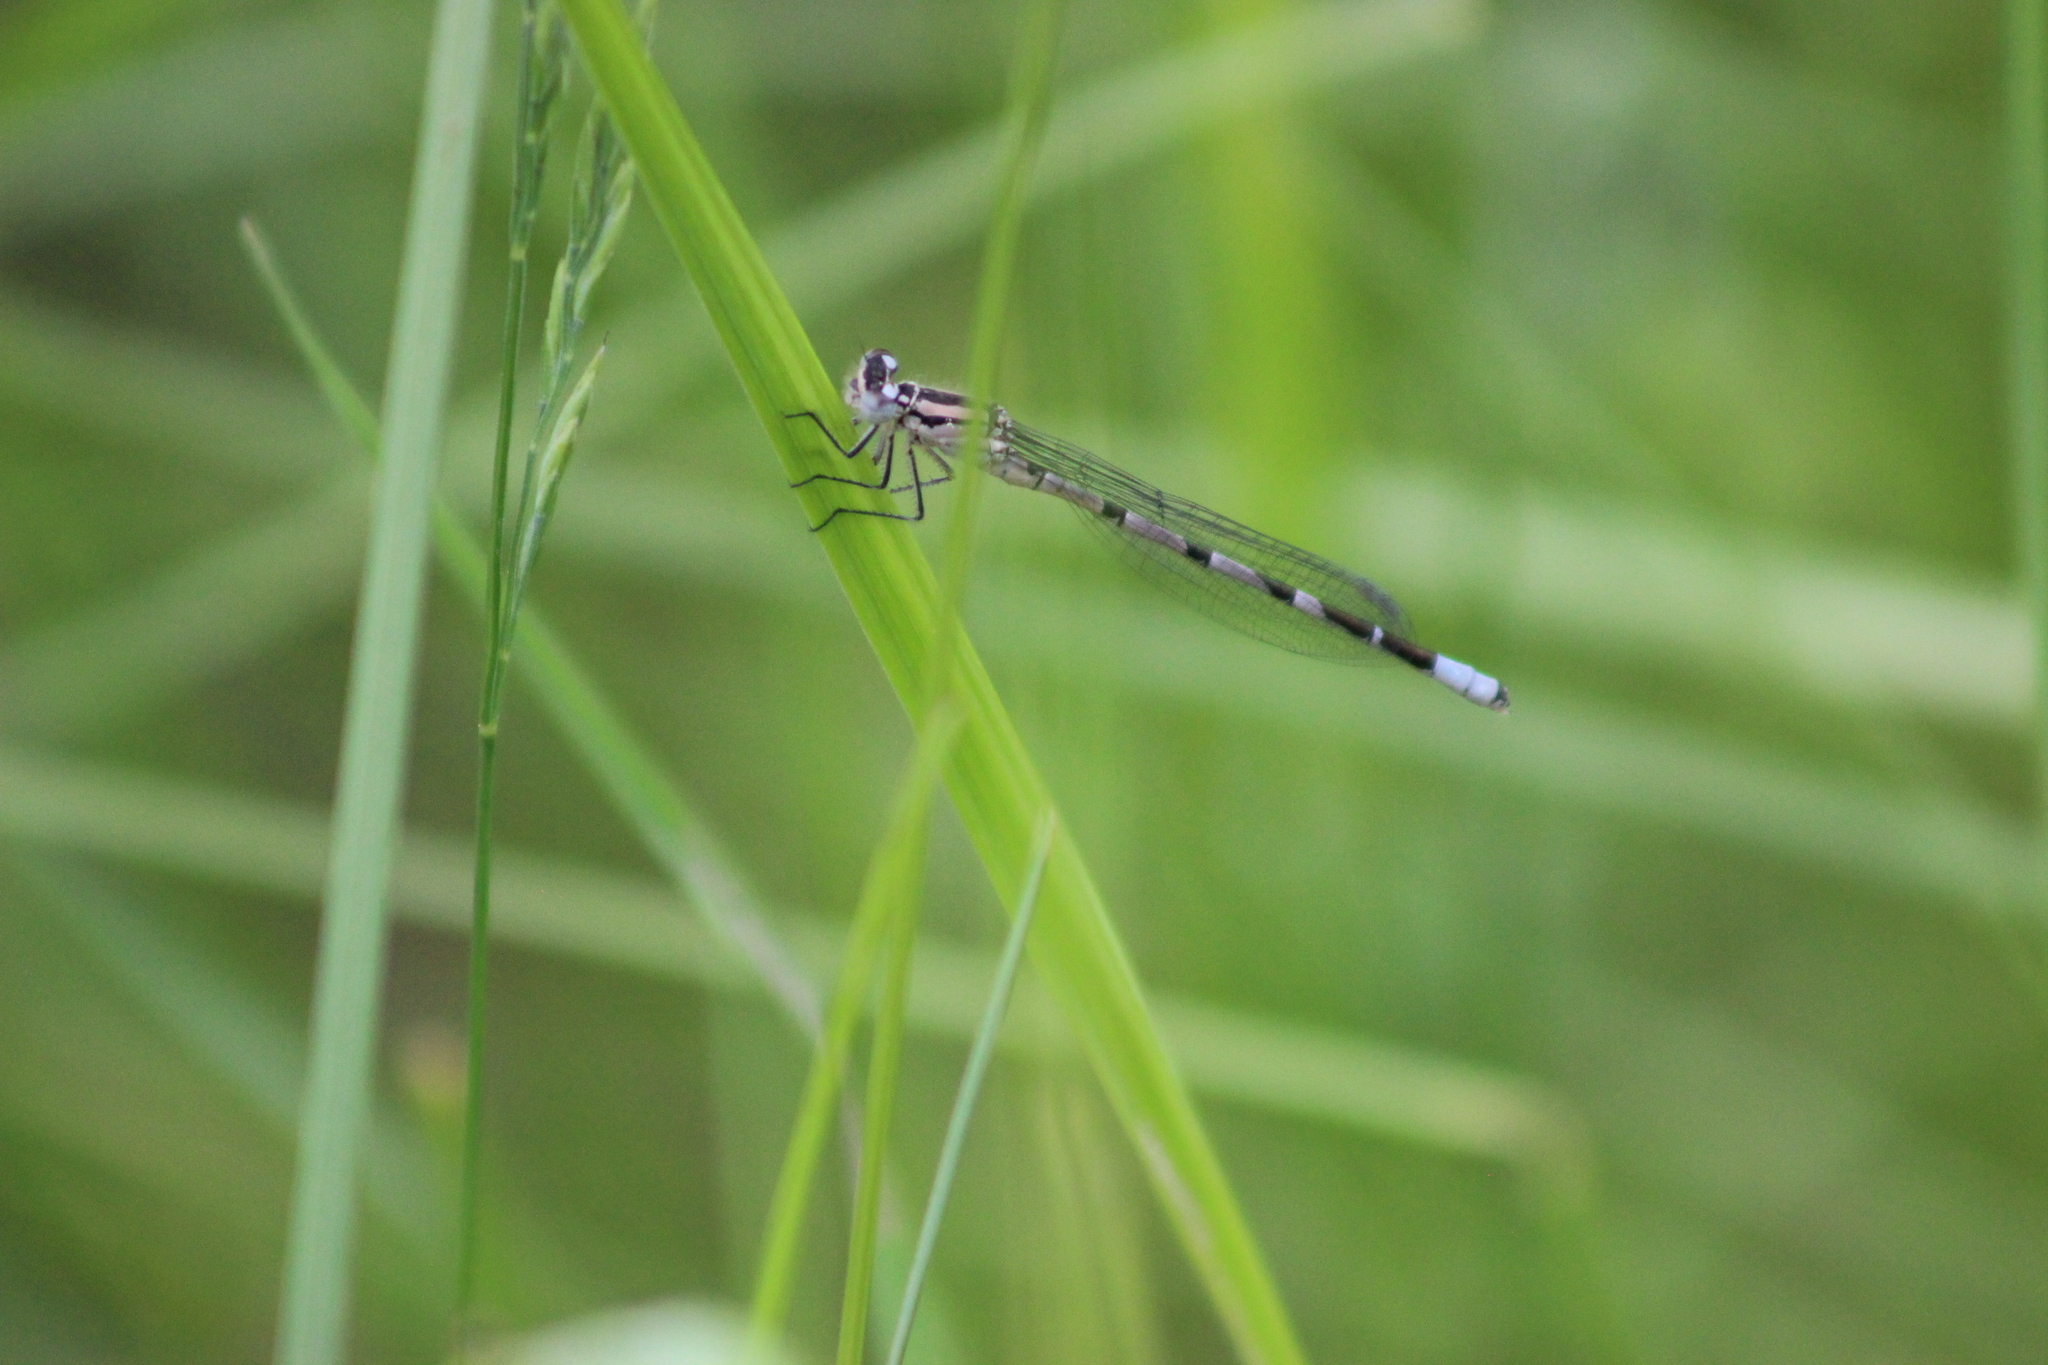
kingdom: Animalia
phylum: Arthropoda
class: Insecta
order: Odonata
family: Coenagrionidae
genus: Enallagma
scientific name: Enallagma cyathigerum
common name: Common blue damselfly
